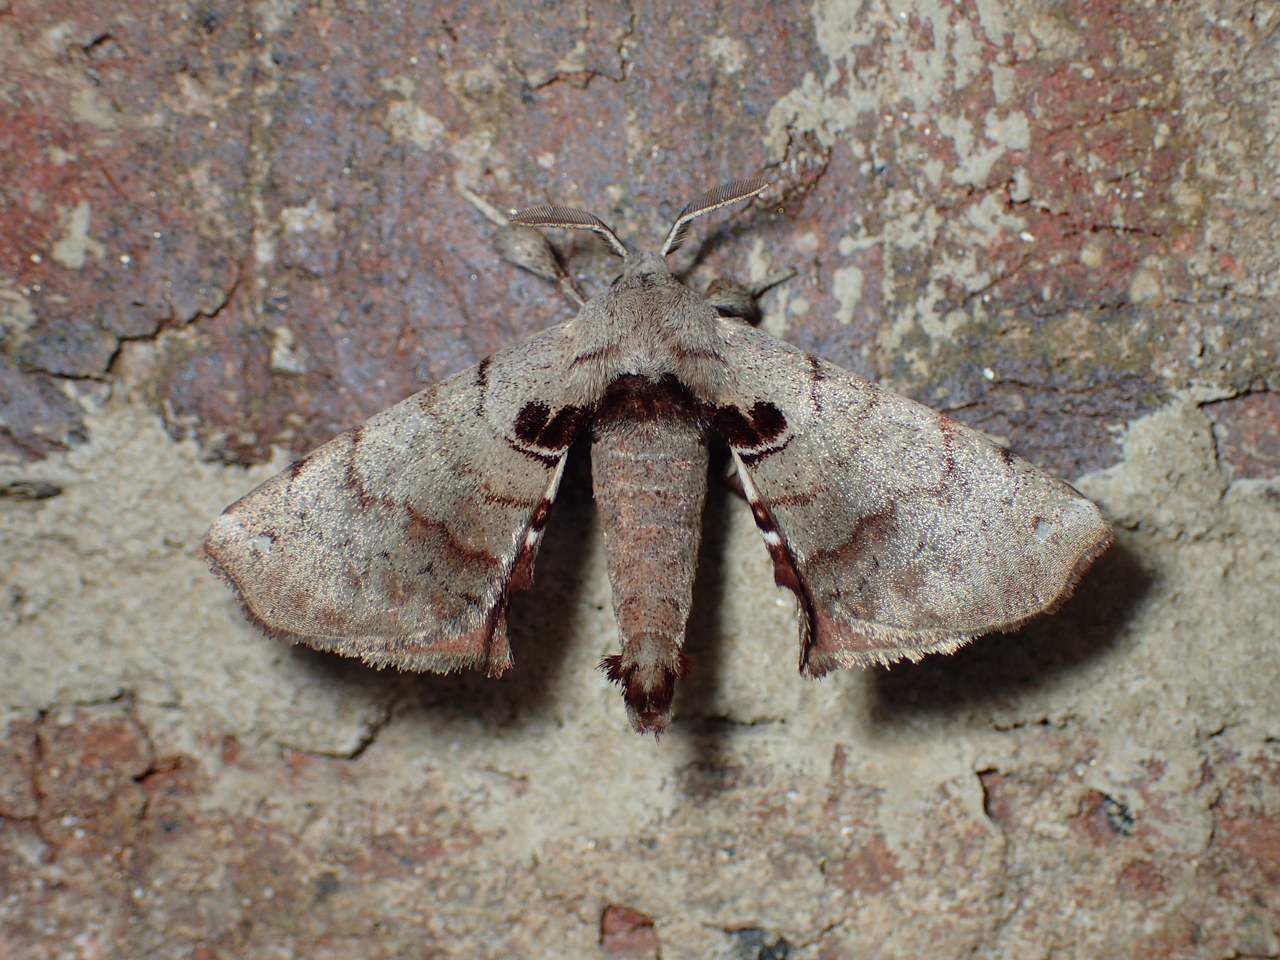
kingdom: Animalia
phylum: Arthropoda
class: Insecta
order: Lepidoptera
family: Apatelodidae
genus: Hygrochroa
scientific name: Hygrochroa Apatelodes torrefacta
